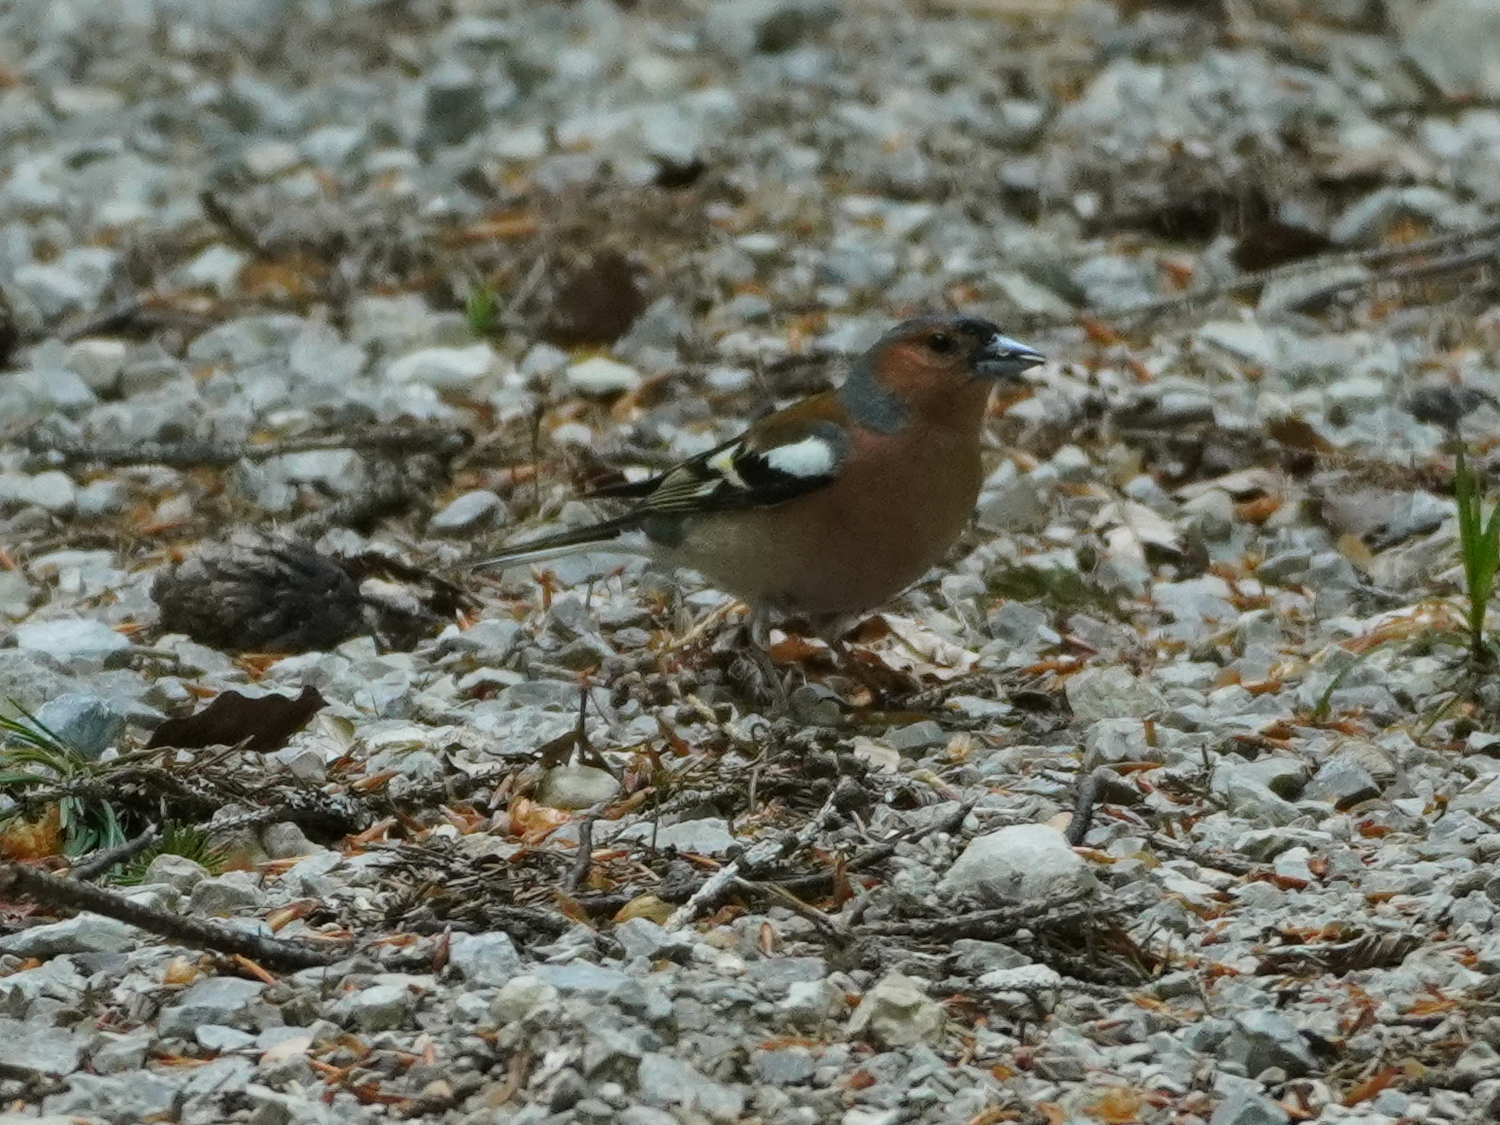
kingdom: Animalia
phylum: Chordata
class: Aves
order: Passeriformes
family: Fringillidae
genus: Fringilla
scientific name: Fringilla coelebs
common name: Common chaffinch
